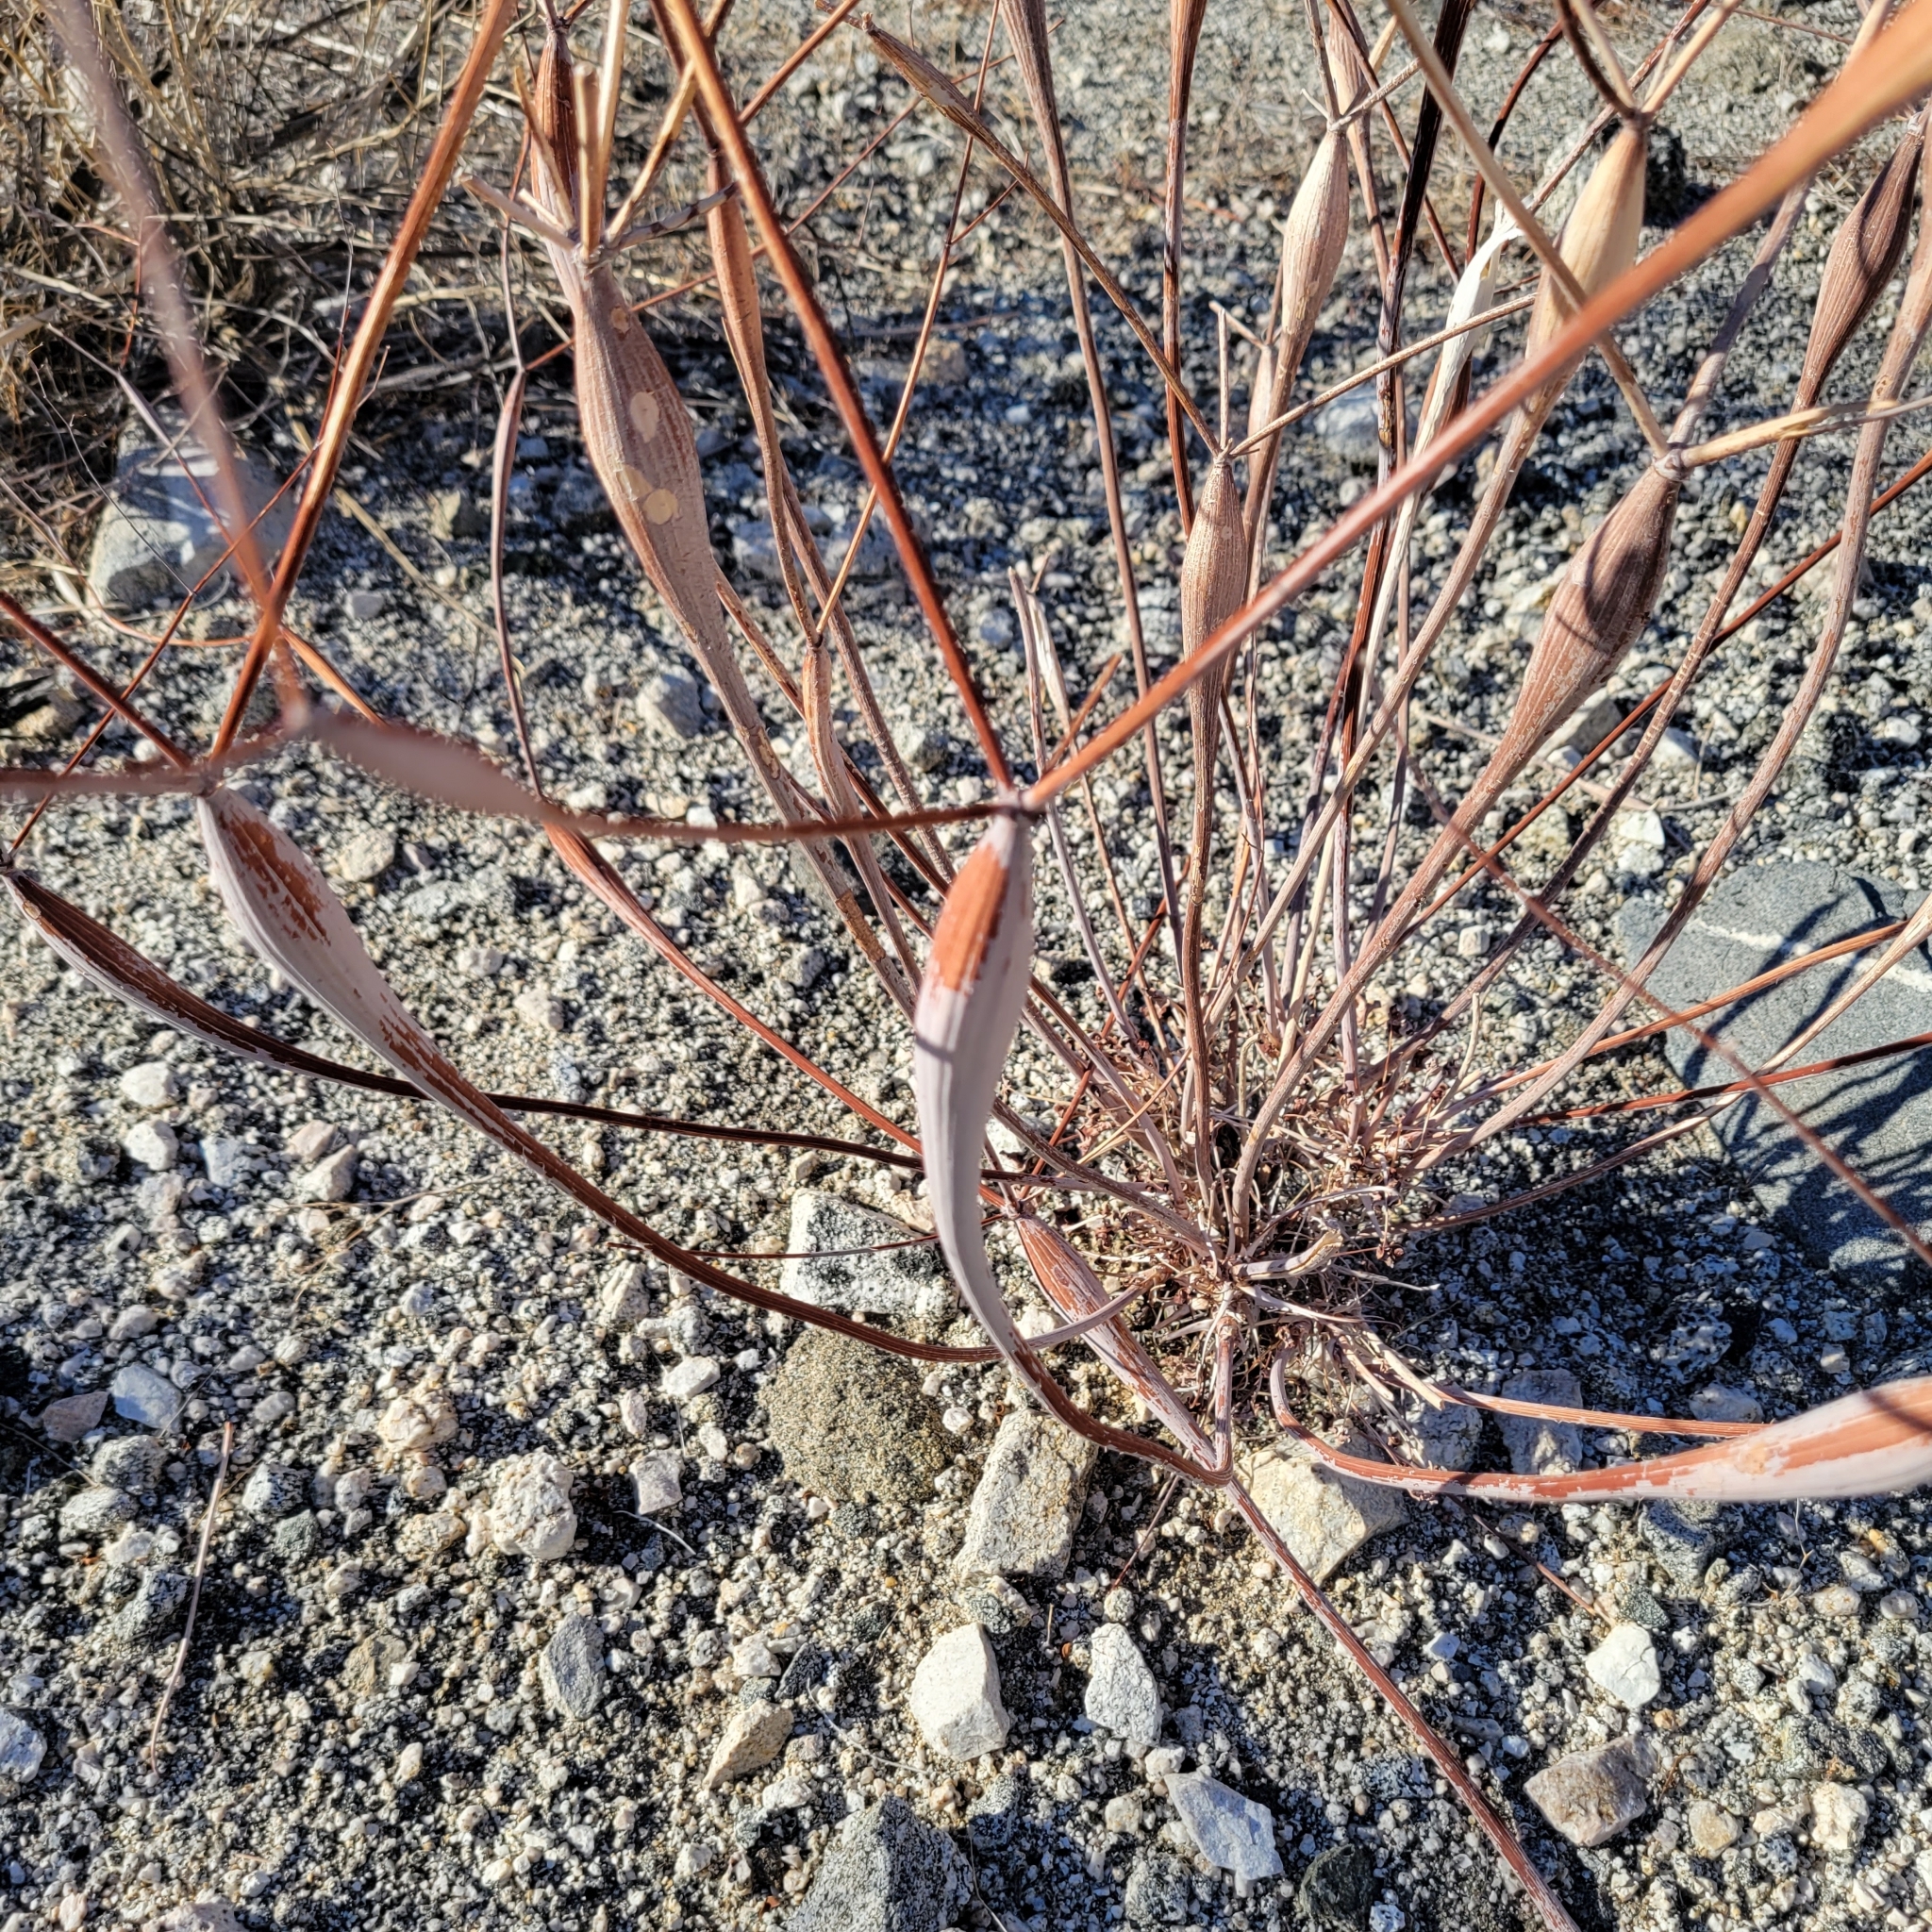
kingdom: Plantae
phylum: Tracheophyta
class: Magnoliopsida
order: Caryophyllales
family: Polygonaceae
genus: Eriogonum
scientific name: Eriogonum inflatum
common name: Desert trumpet
